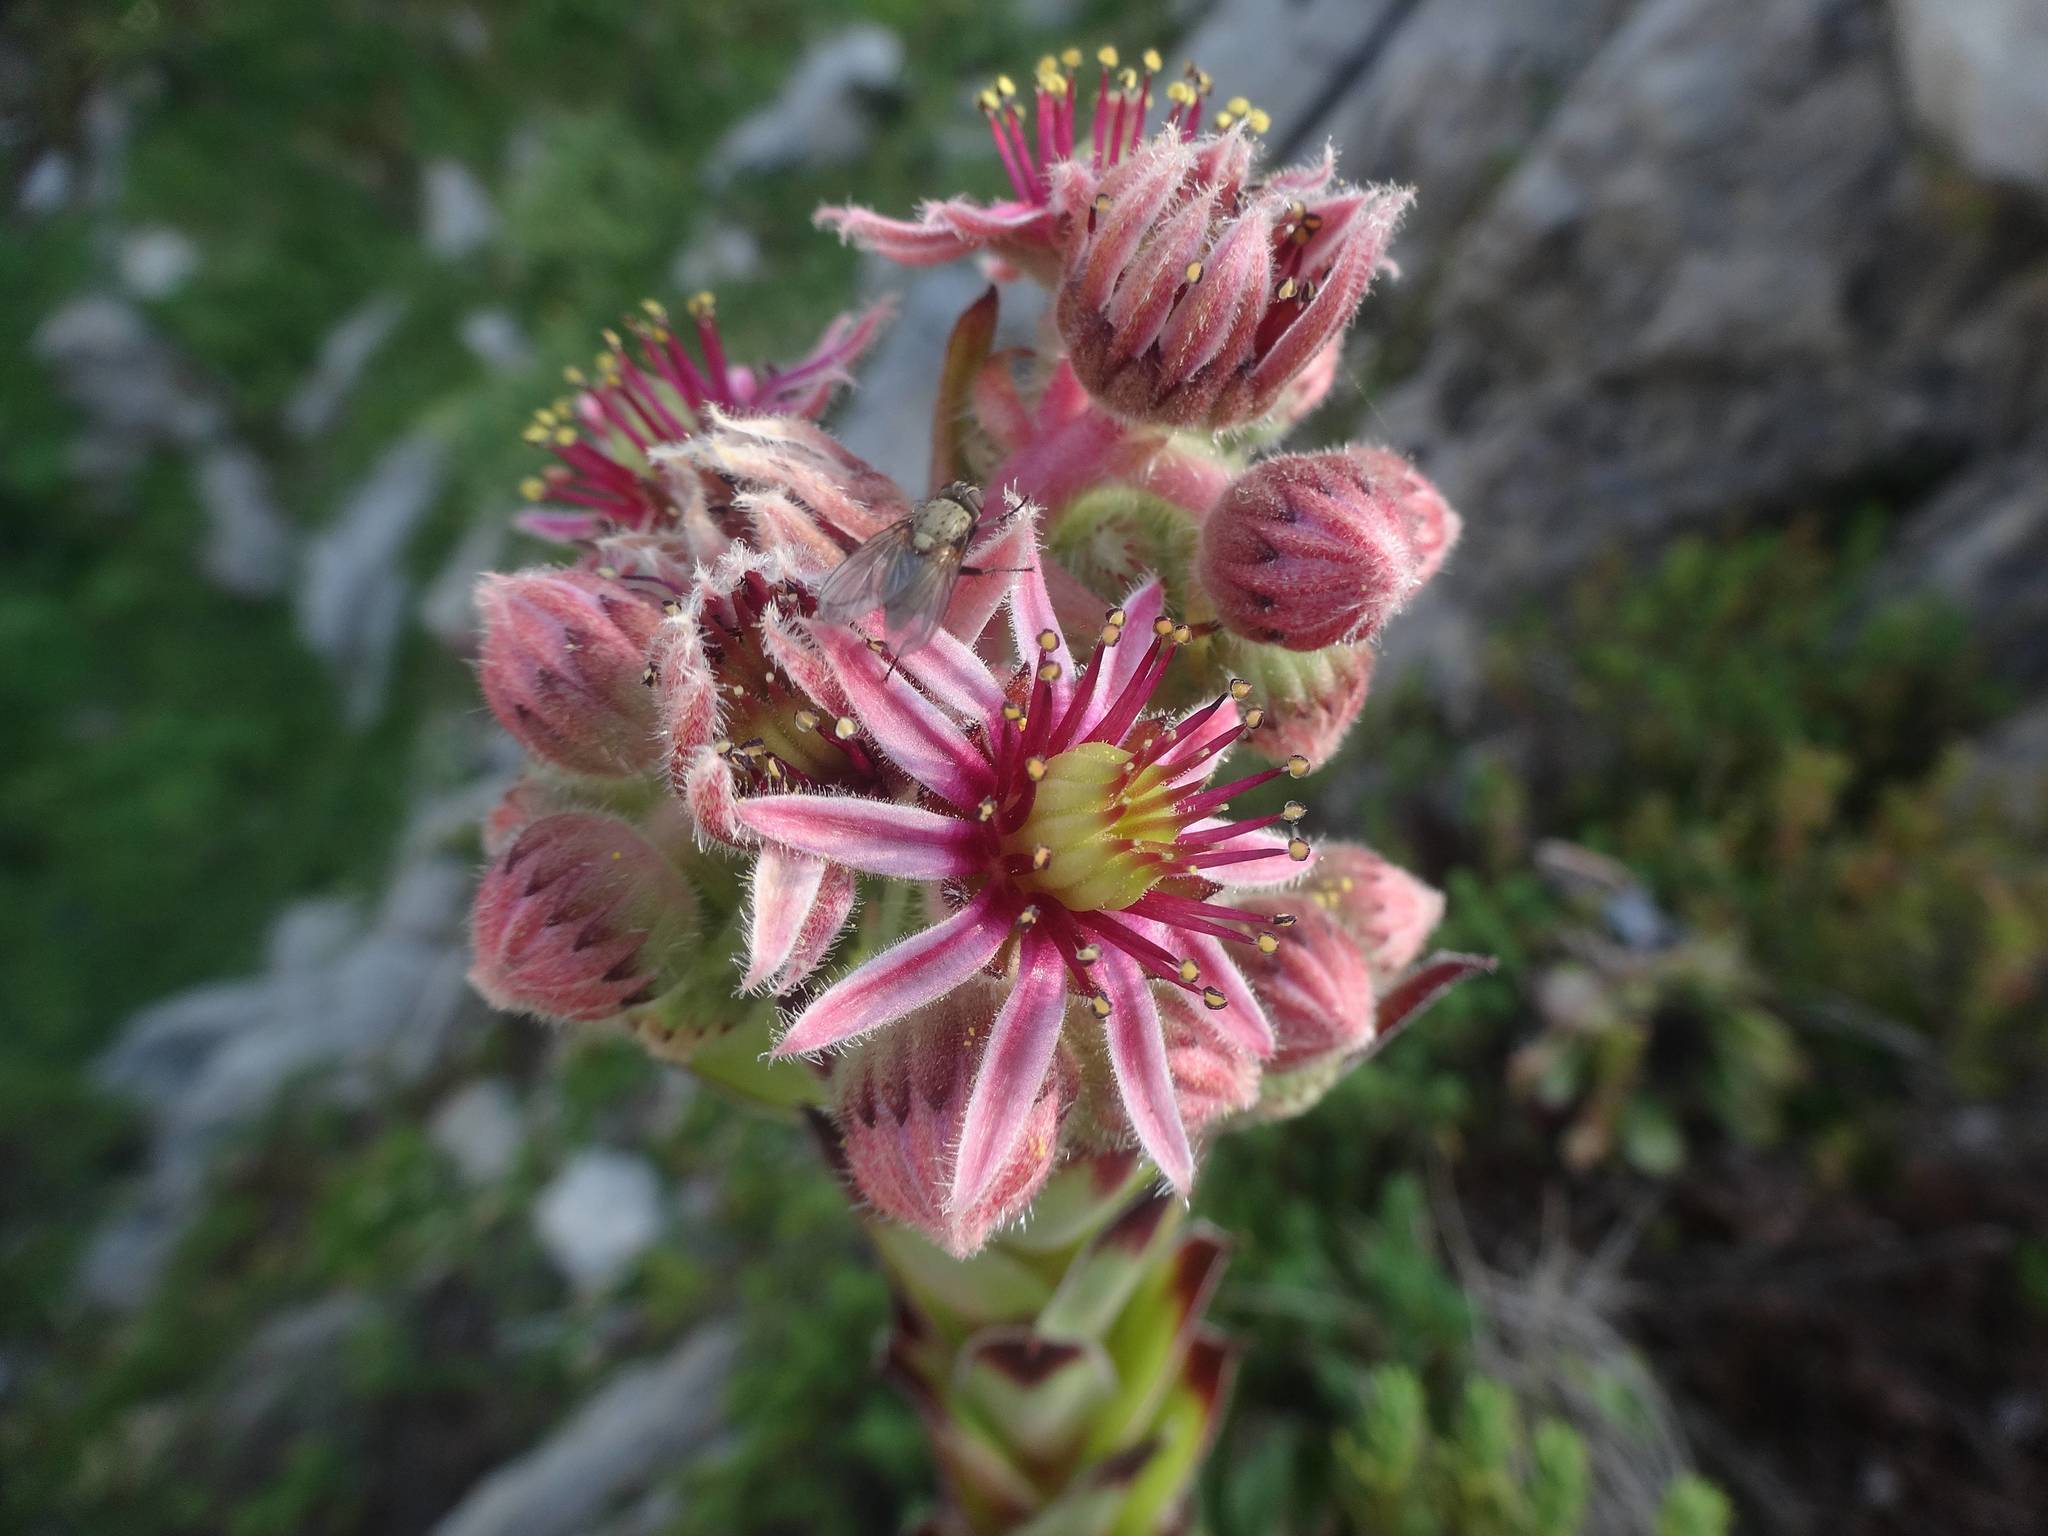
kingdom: Plantae
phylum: Tracheophyta
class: Magnoliopsida
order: Saxifragales
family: Crassulaceae
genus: Sempervivum
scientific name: Sempervivum tectorum
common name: House-leek
